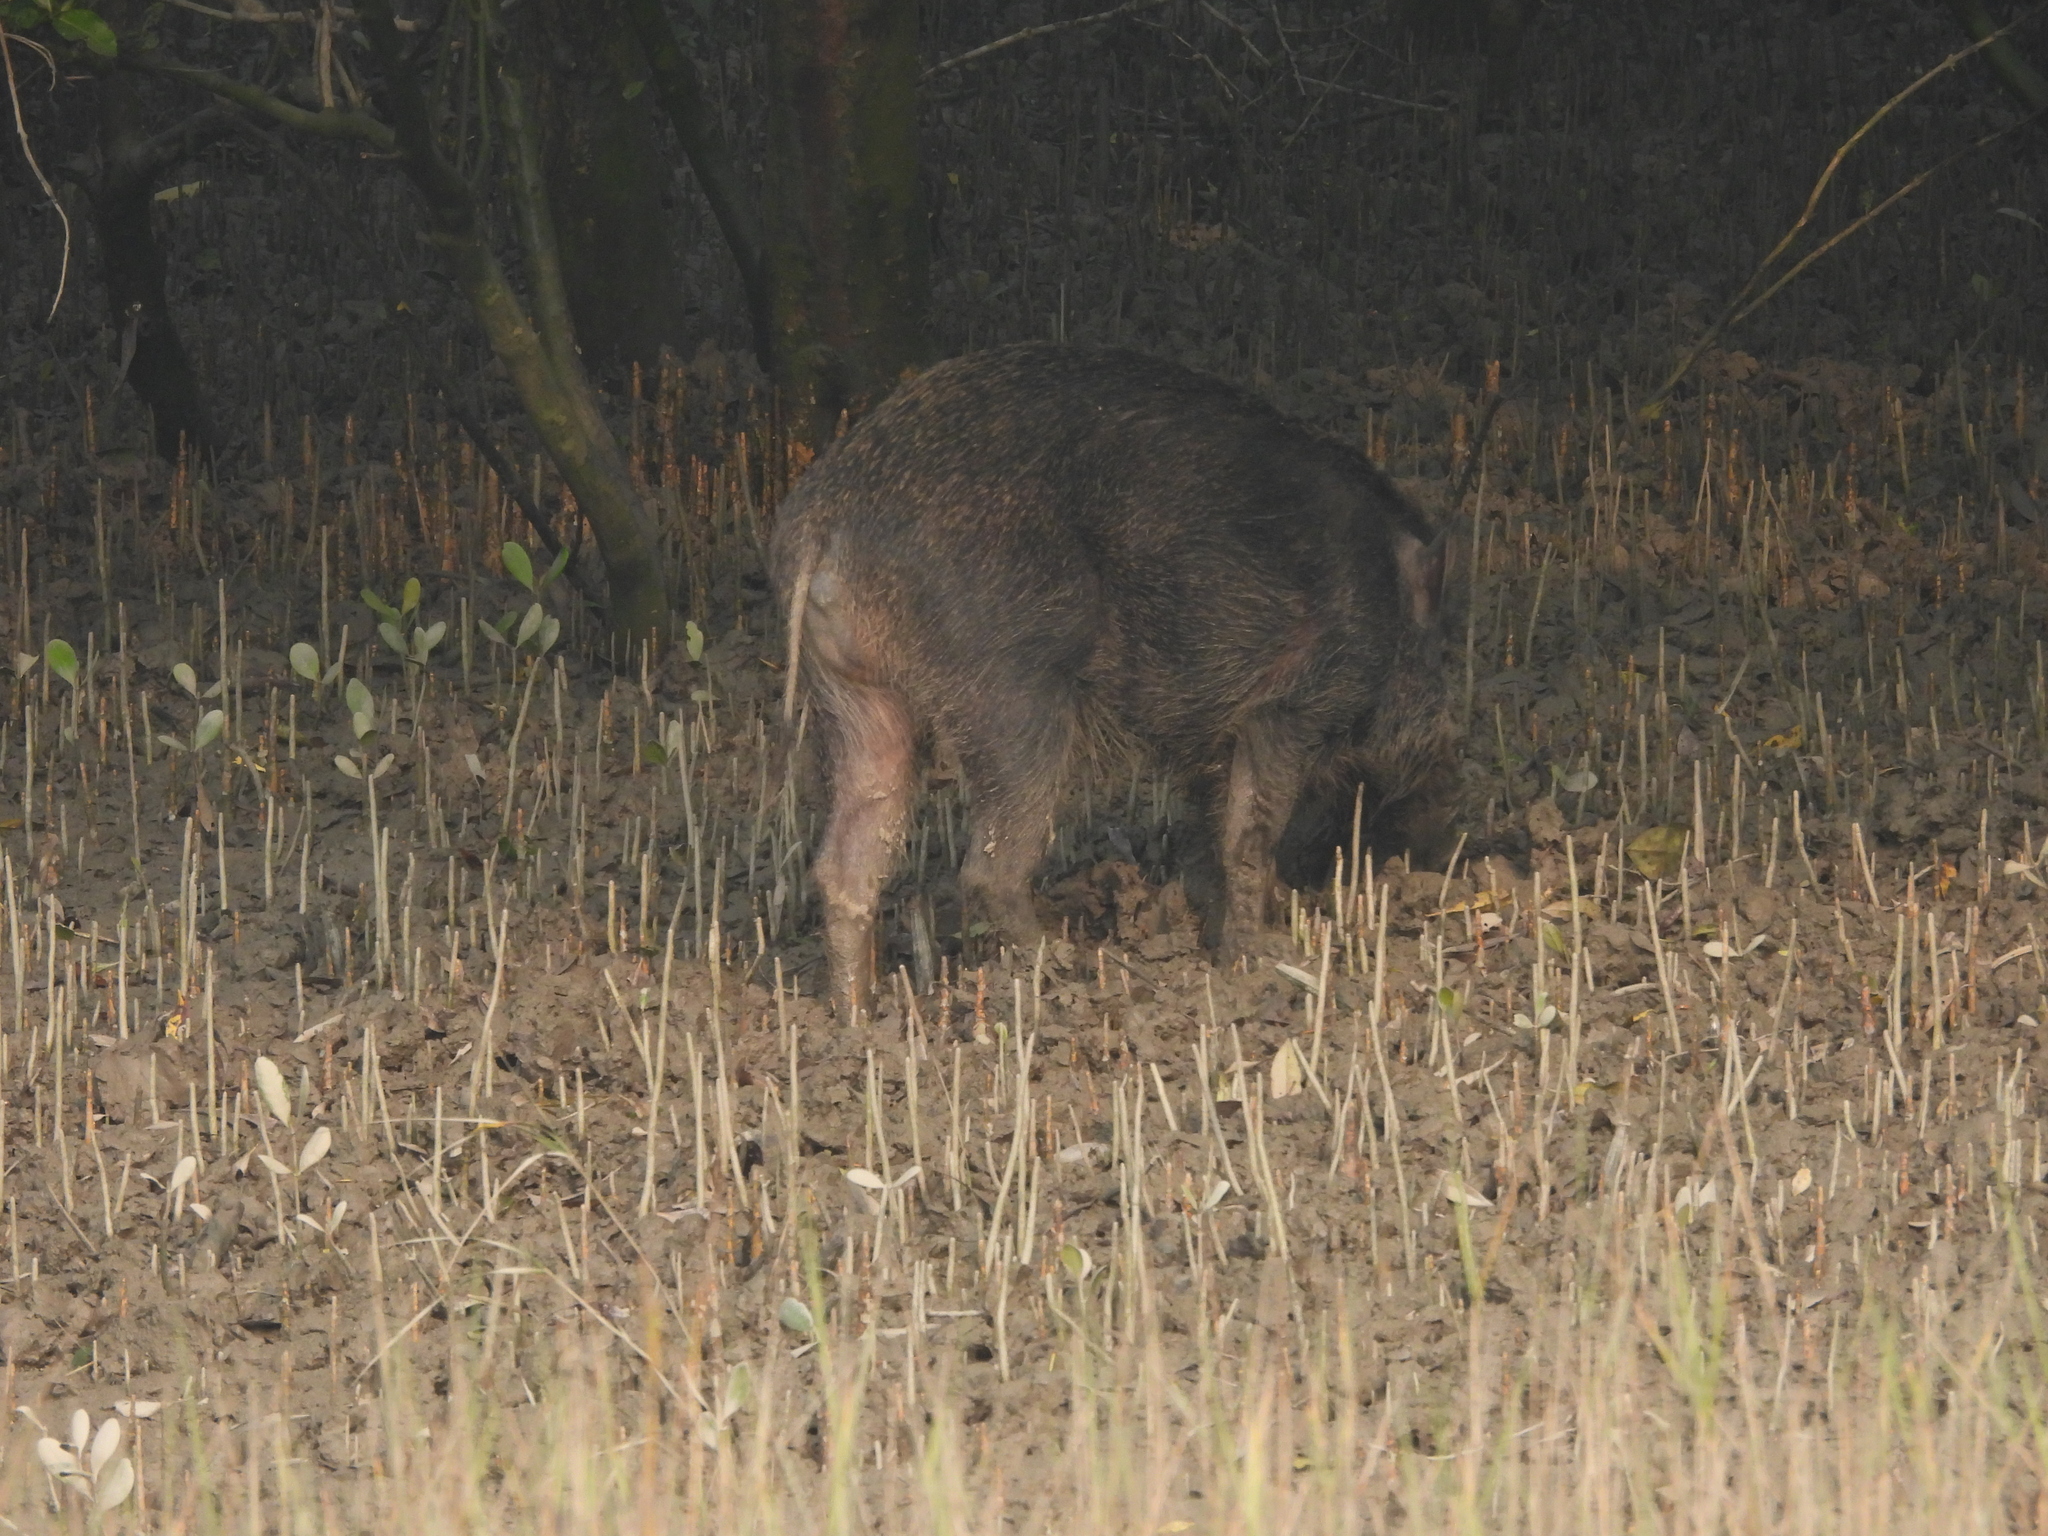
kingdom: Animalia
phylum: Chordata
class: Mammalia
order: Artiodactyla
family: Suidae
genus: Sus
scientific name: Sus scrofa
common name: Wild boar
